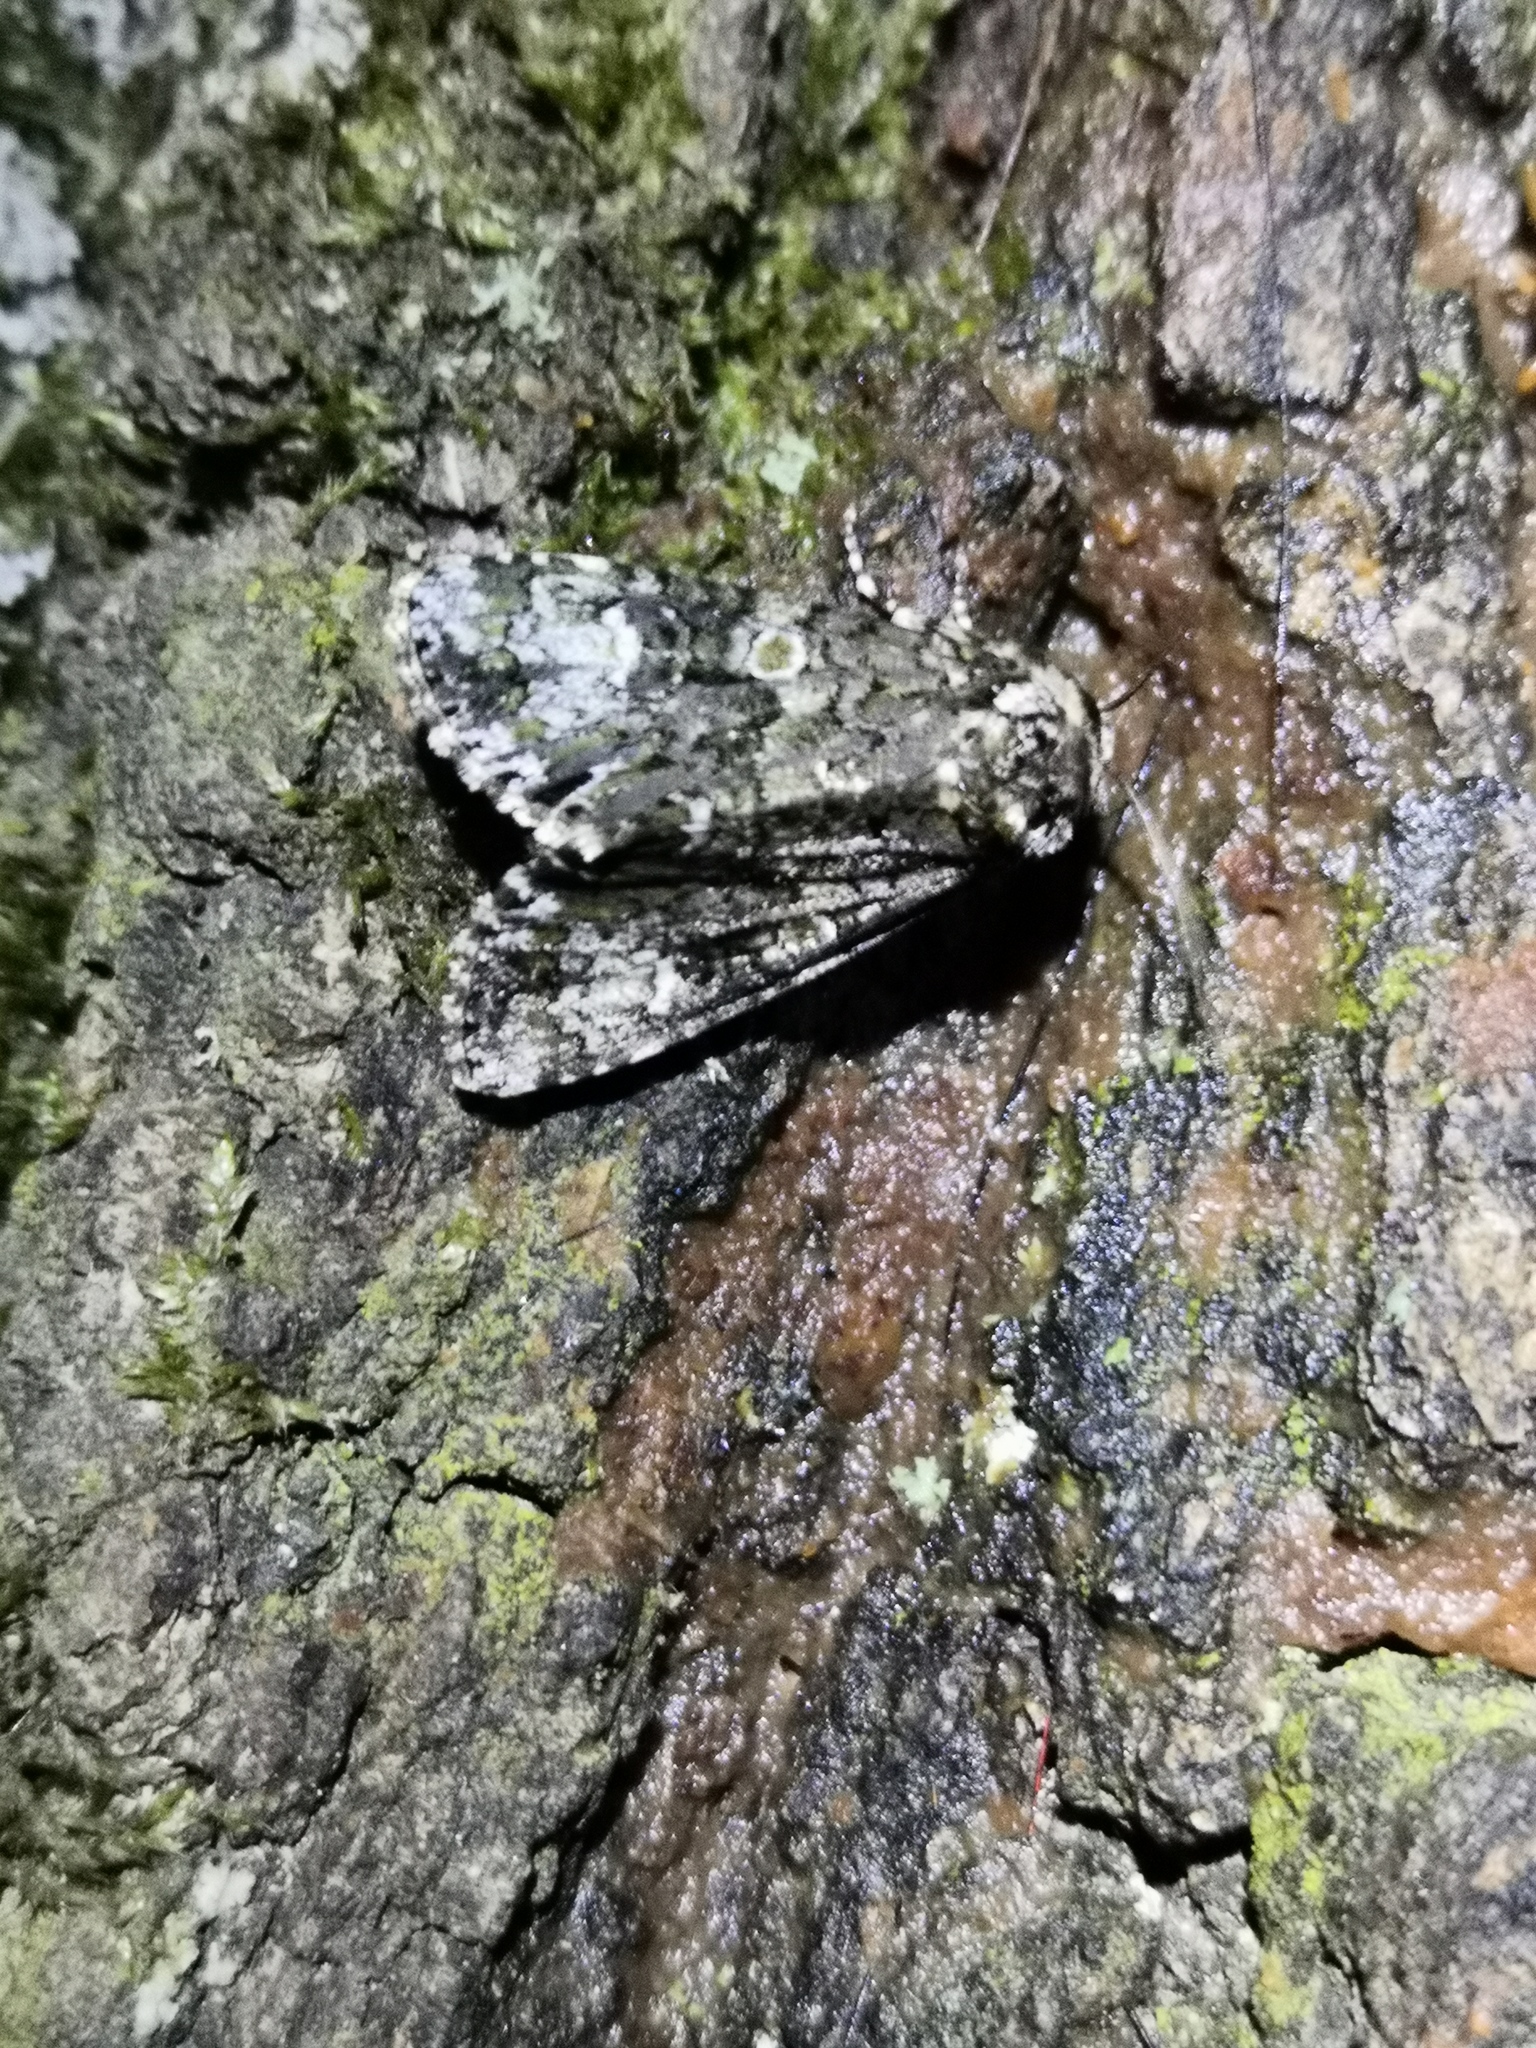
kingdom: Animalia
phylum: Arthropoda
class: Insecta
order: Lepidoptera
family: Noctuidae
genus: Craniophora
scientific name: Craniophora ligustri
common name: Coronet
